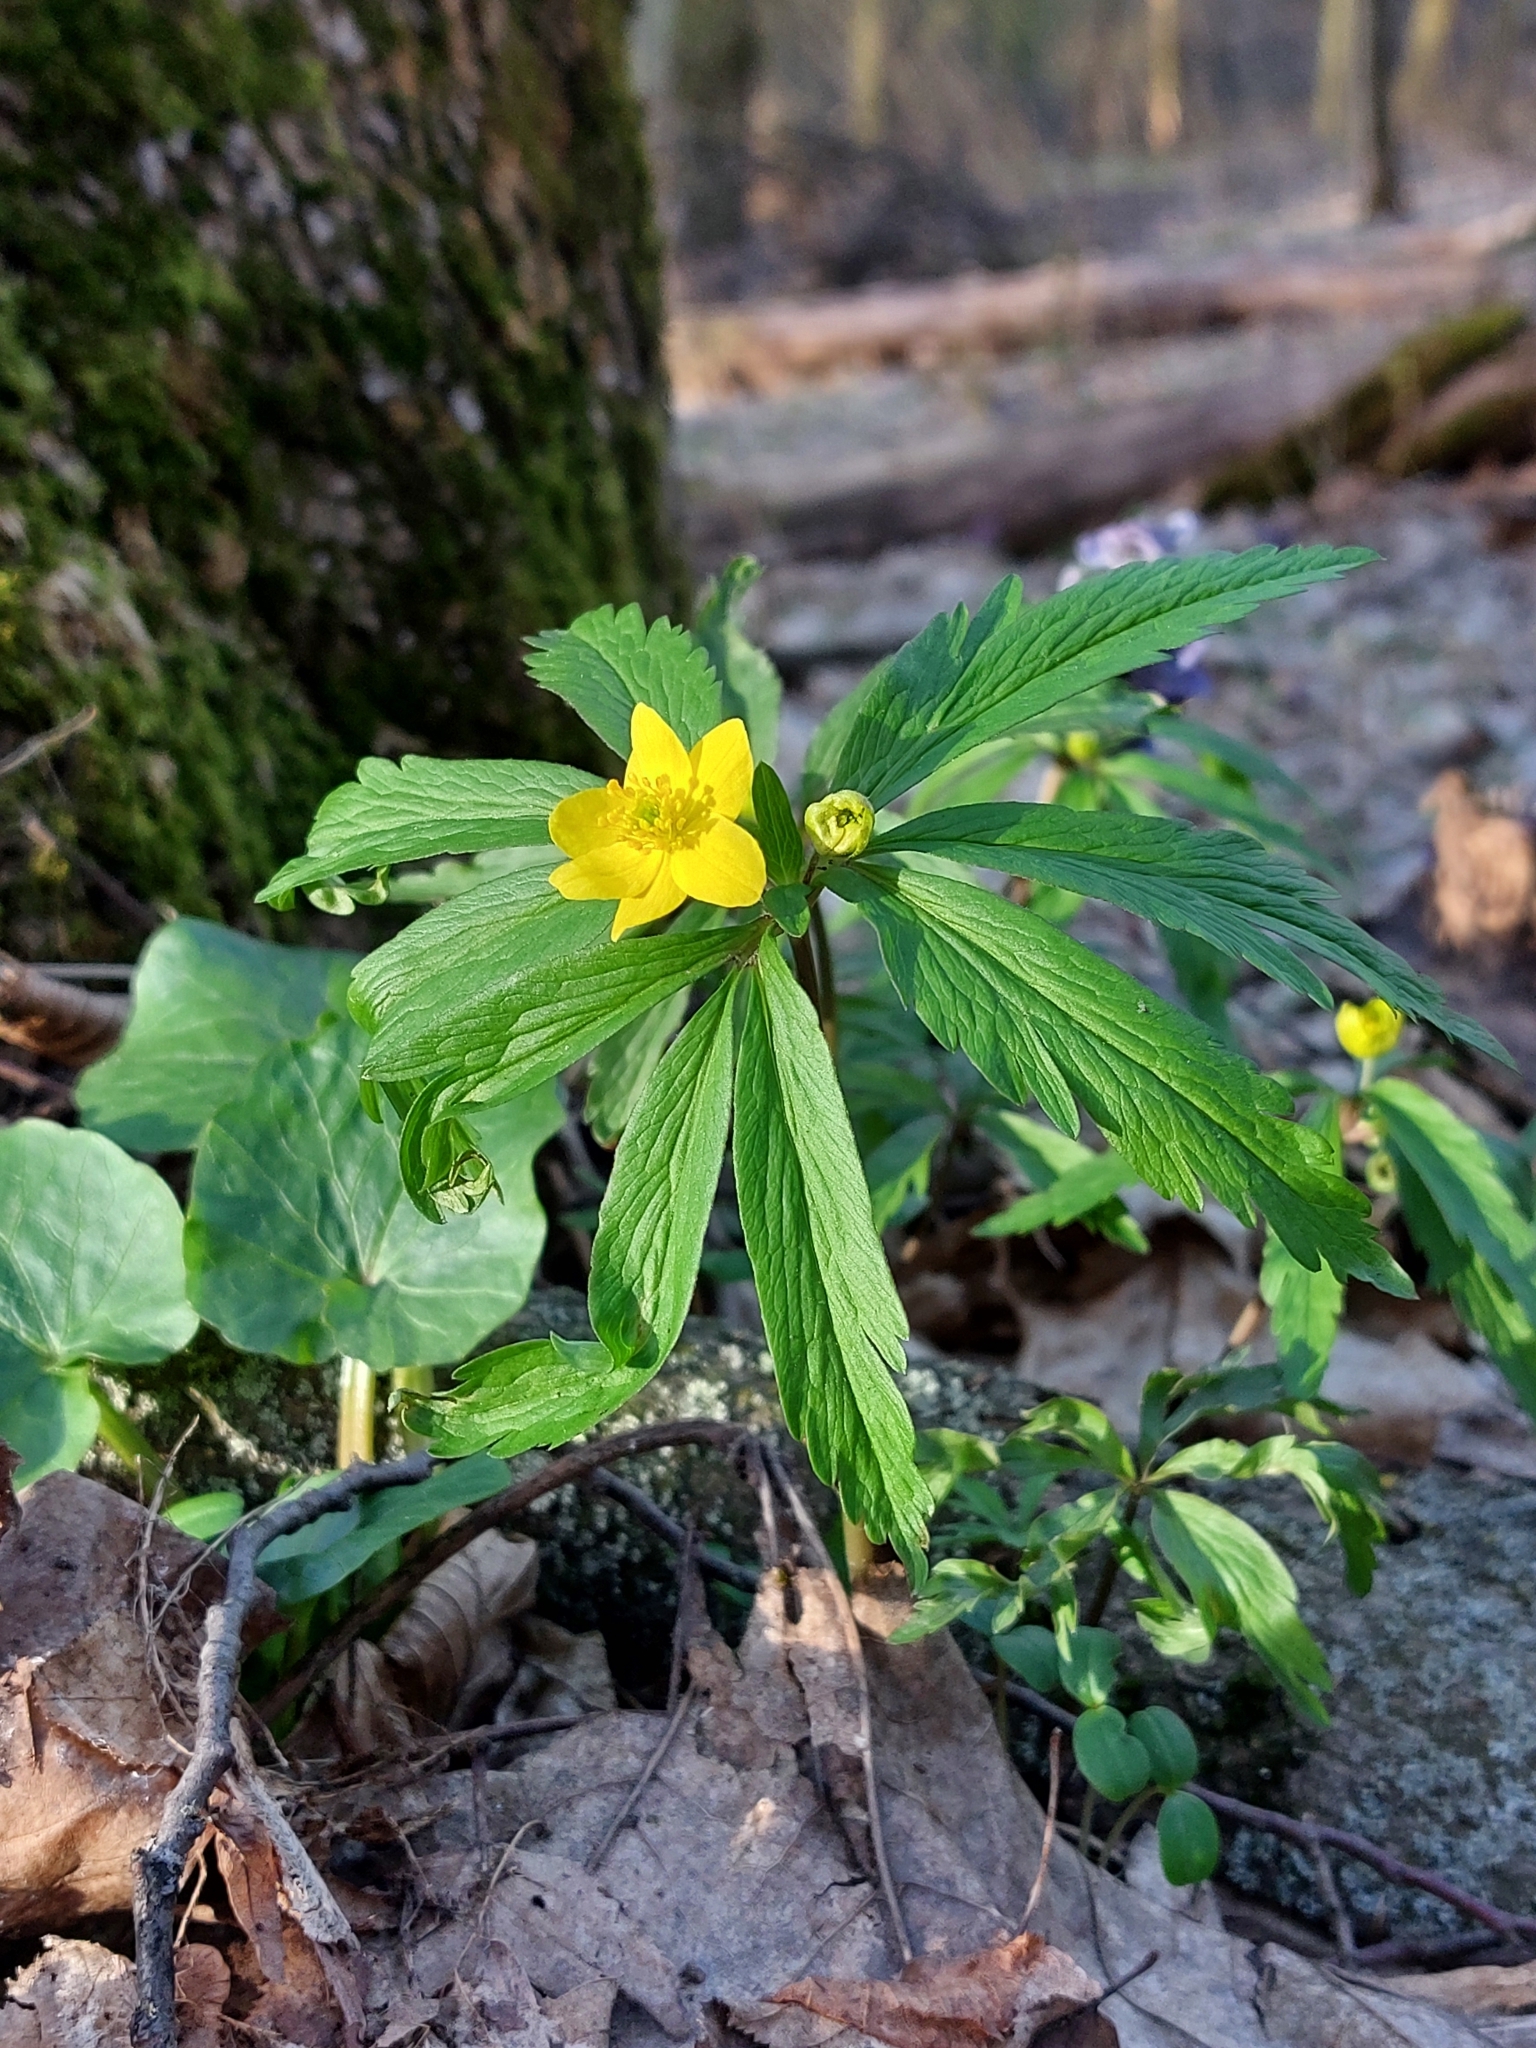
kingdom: Plantae
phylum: Tracheophyta
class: Magnoliopsida
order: Ranunculales
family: Ranunculaceae
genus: Anemone
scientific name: Anemone ranunculoides
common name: Yellow anemone
